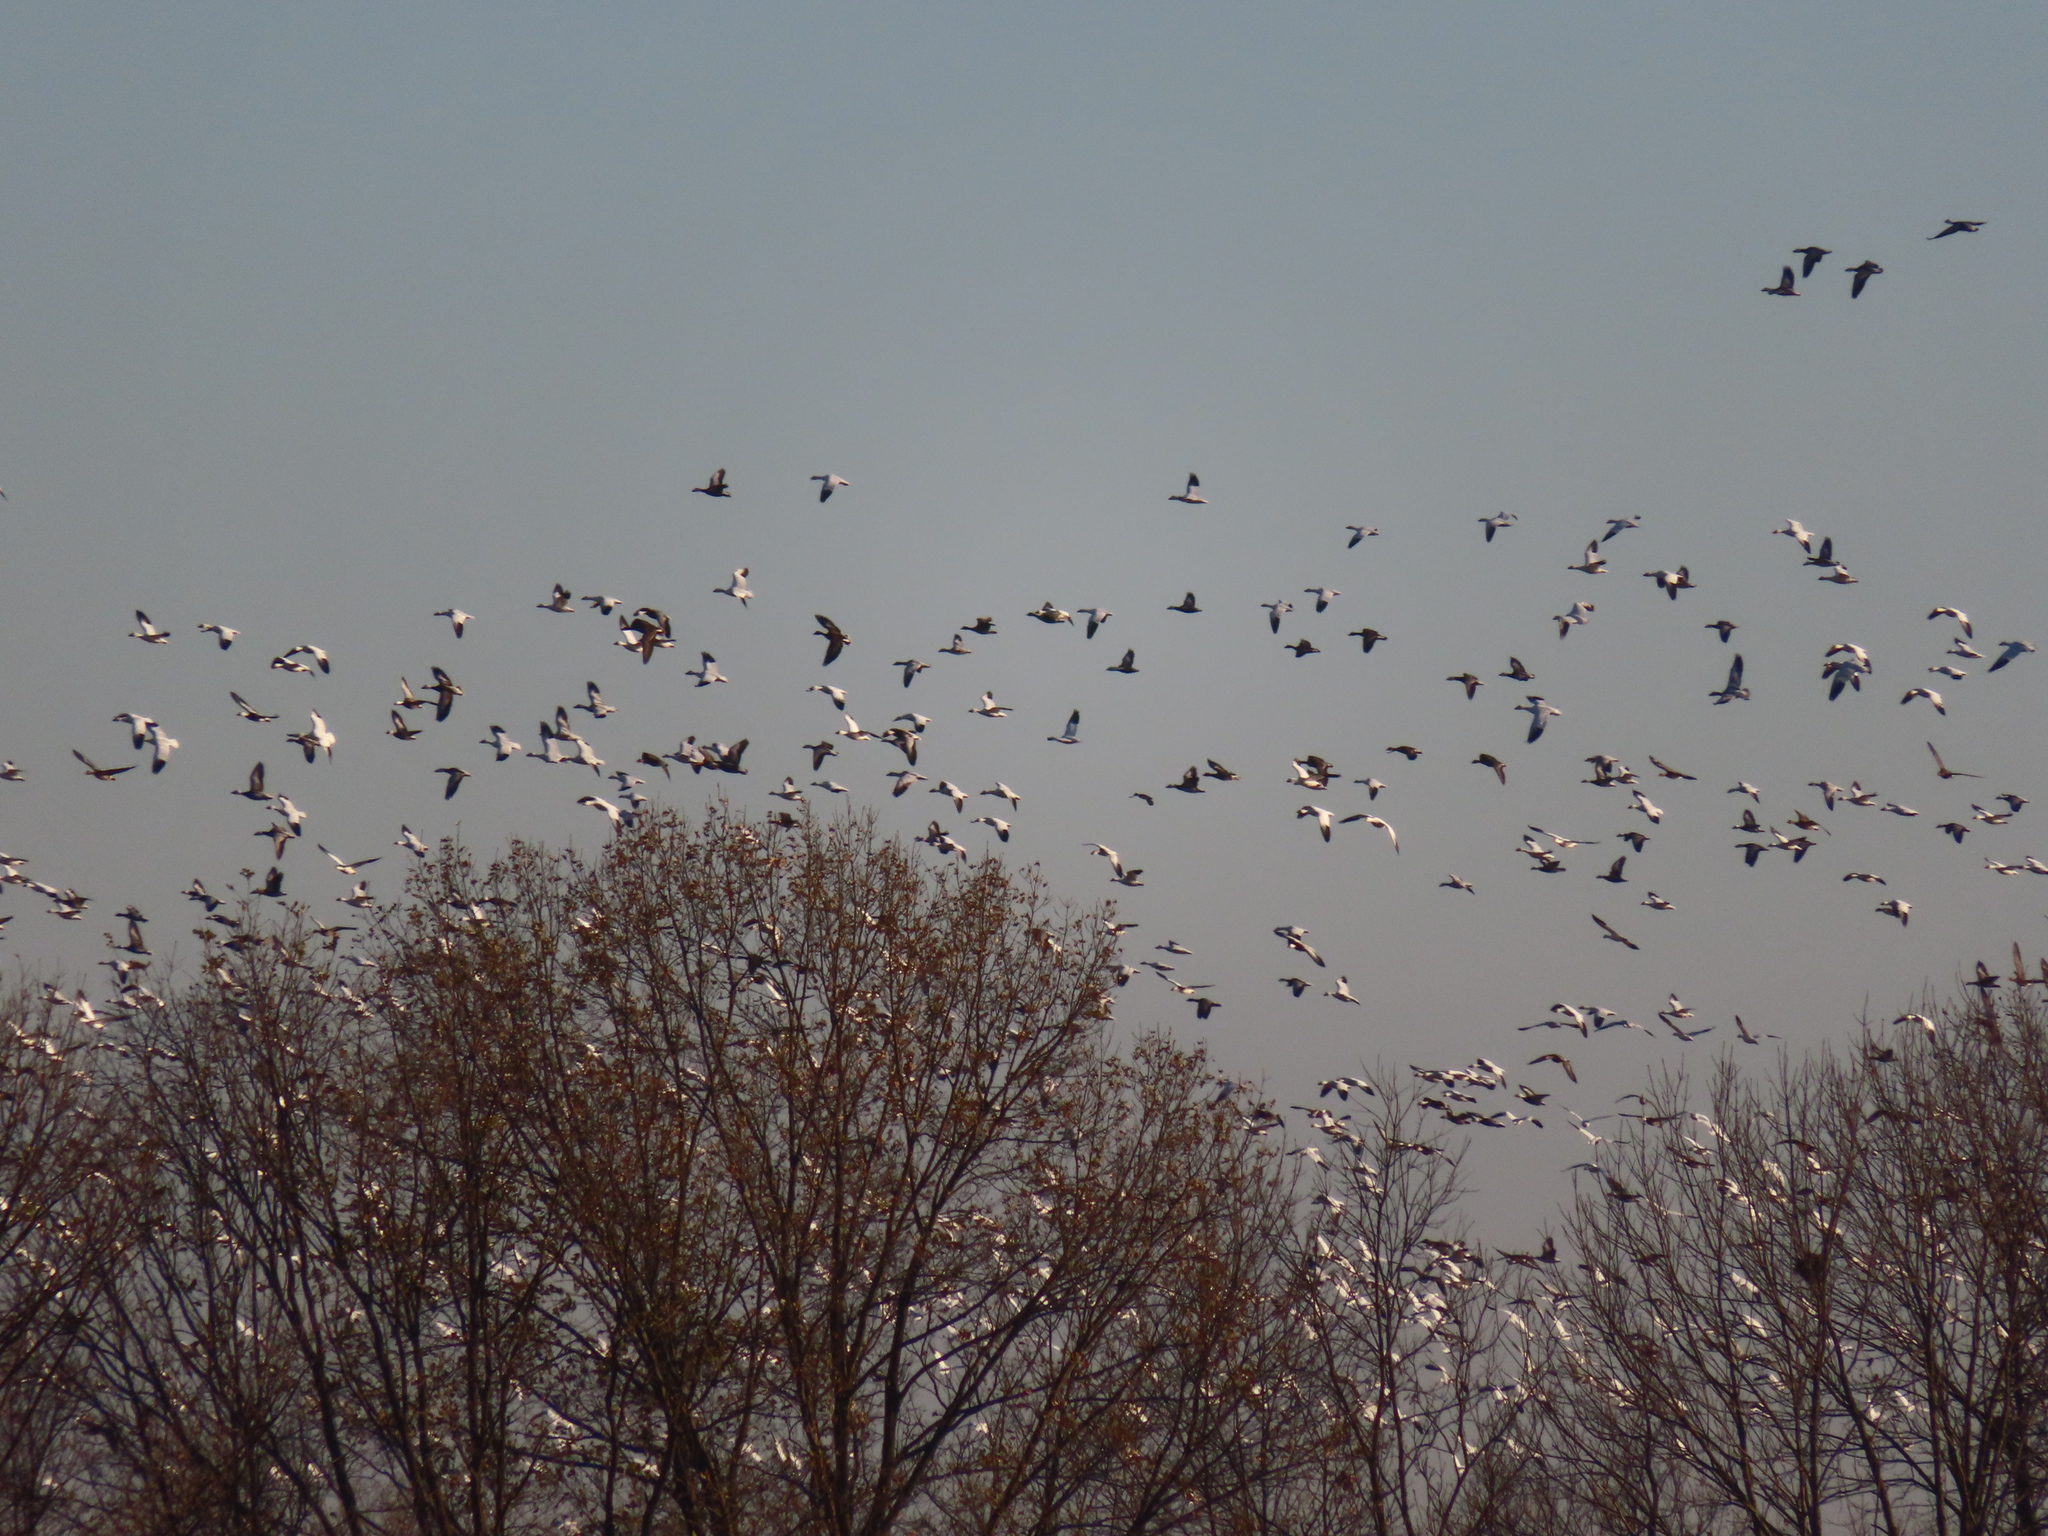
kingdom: Animalia
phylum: Chordata
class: Aves
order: Anseriformes
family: Anatidae
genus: Anser
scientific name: Anser caerulescens
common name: Snow goose
